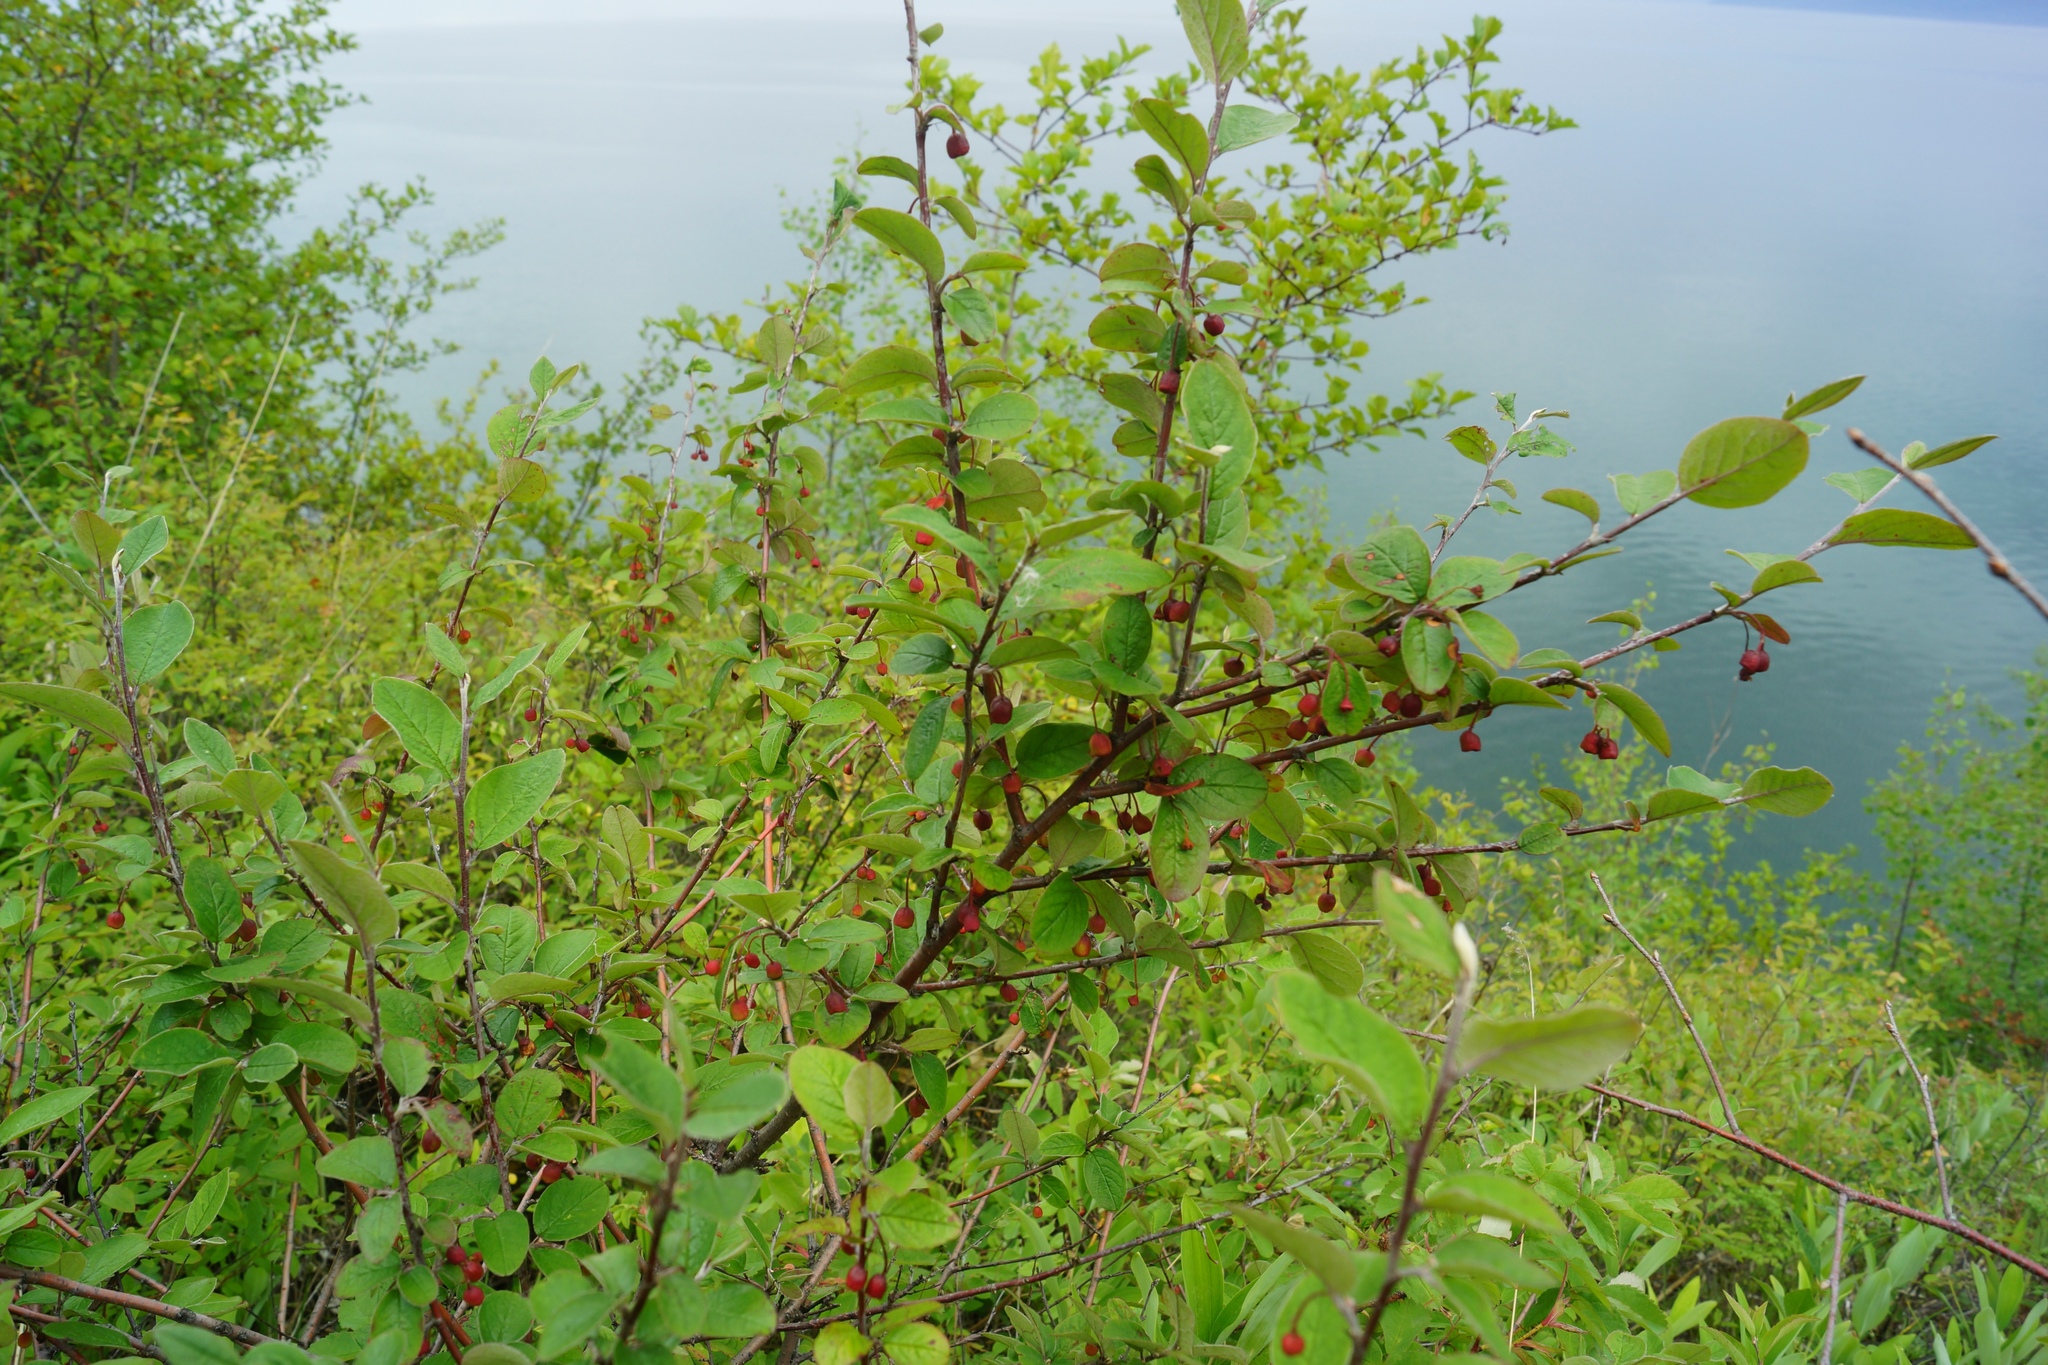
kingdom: Plantae
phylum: Tracheophyta
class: Magnoliopsida
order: Rosales
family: Rosaceae
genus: Cotoneaster
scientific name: Cotoneaster melanocarpus
